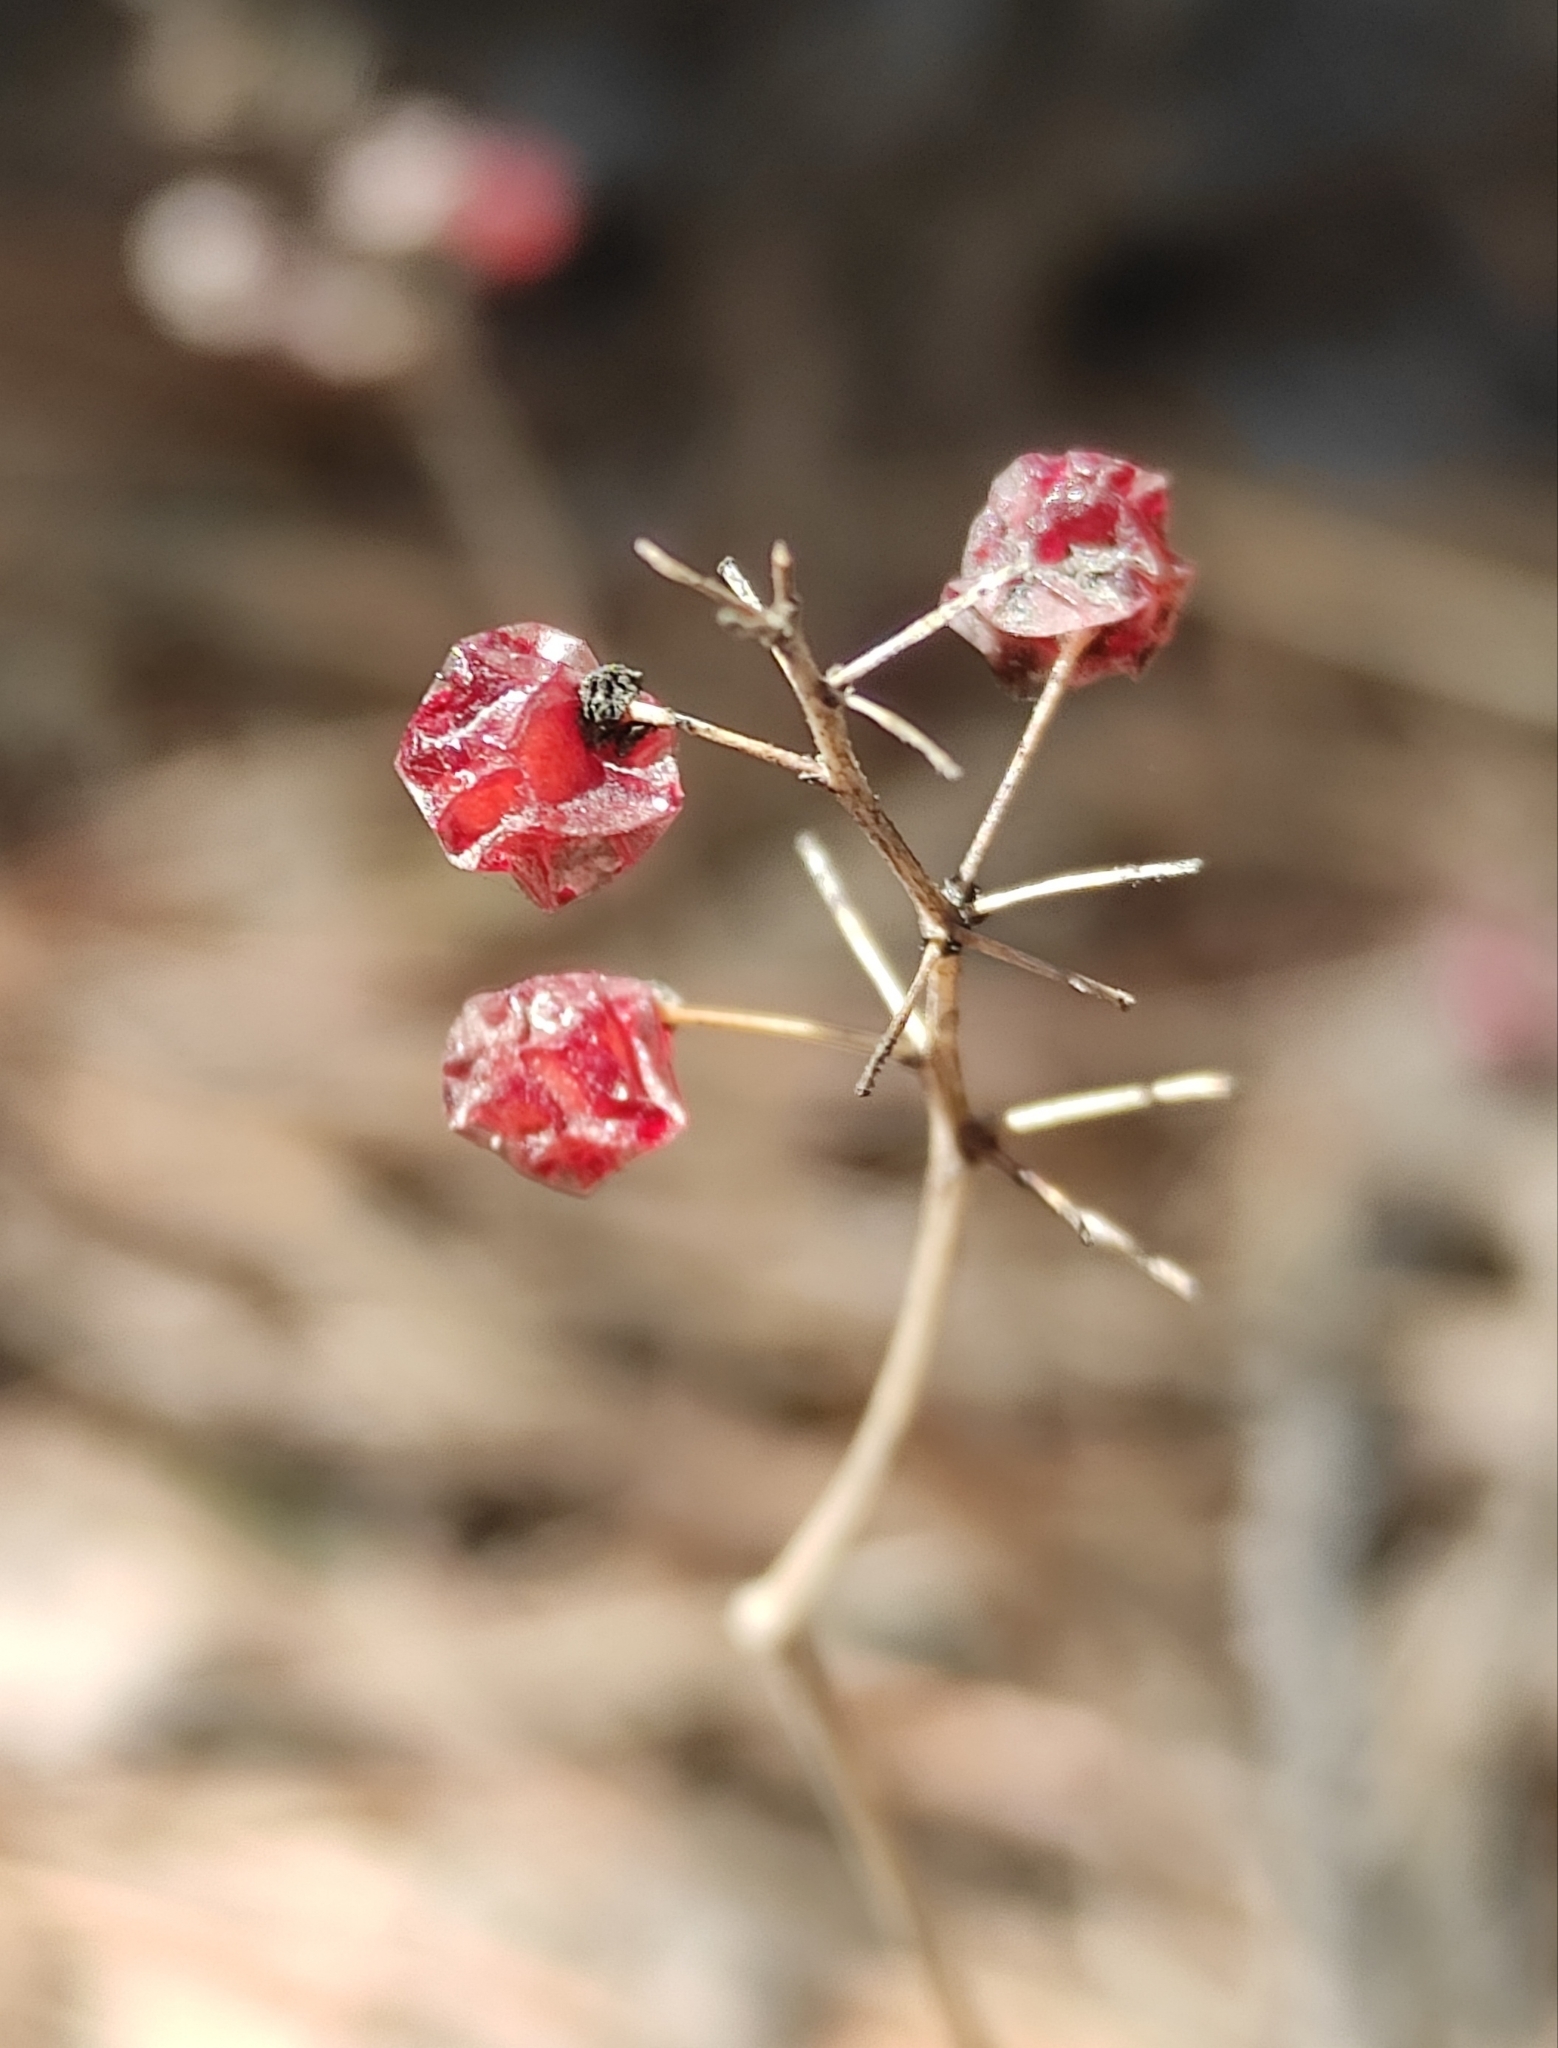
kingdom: Plantae
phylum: Tracheophyta
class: Liliopsida
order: Asparagales
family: Asparagaceae
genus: Maianthemum
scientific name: Maianthemum bifolium
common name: May lily
